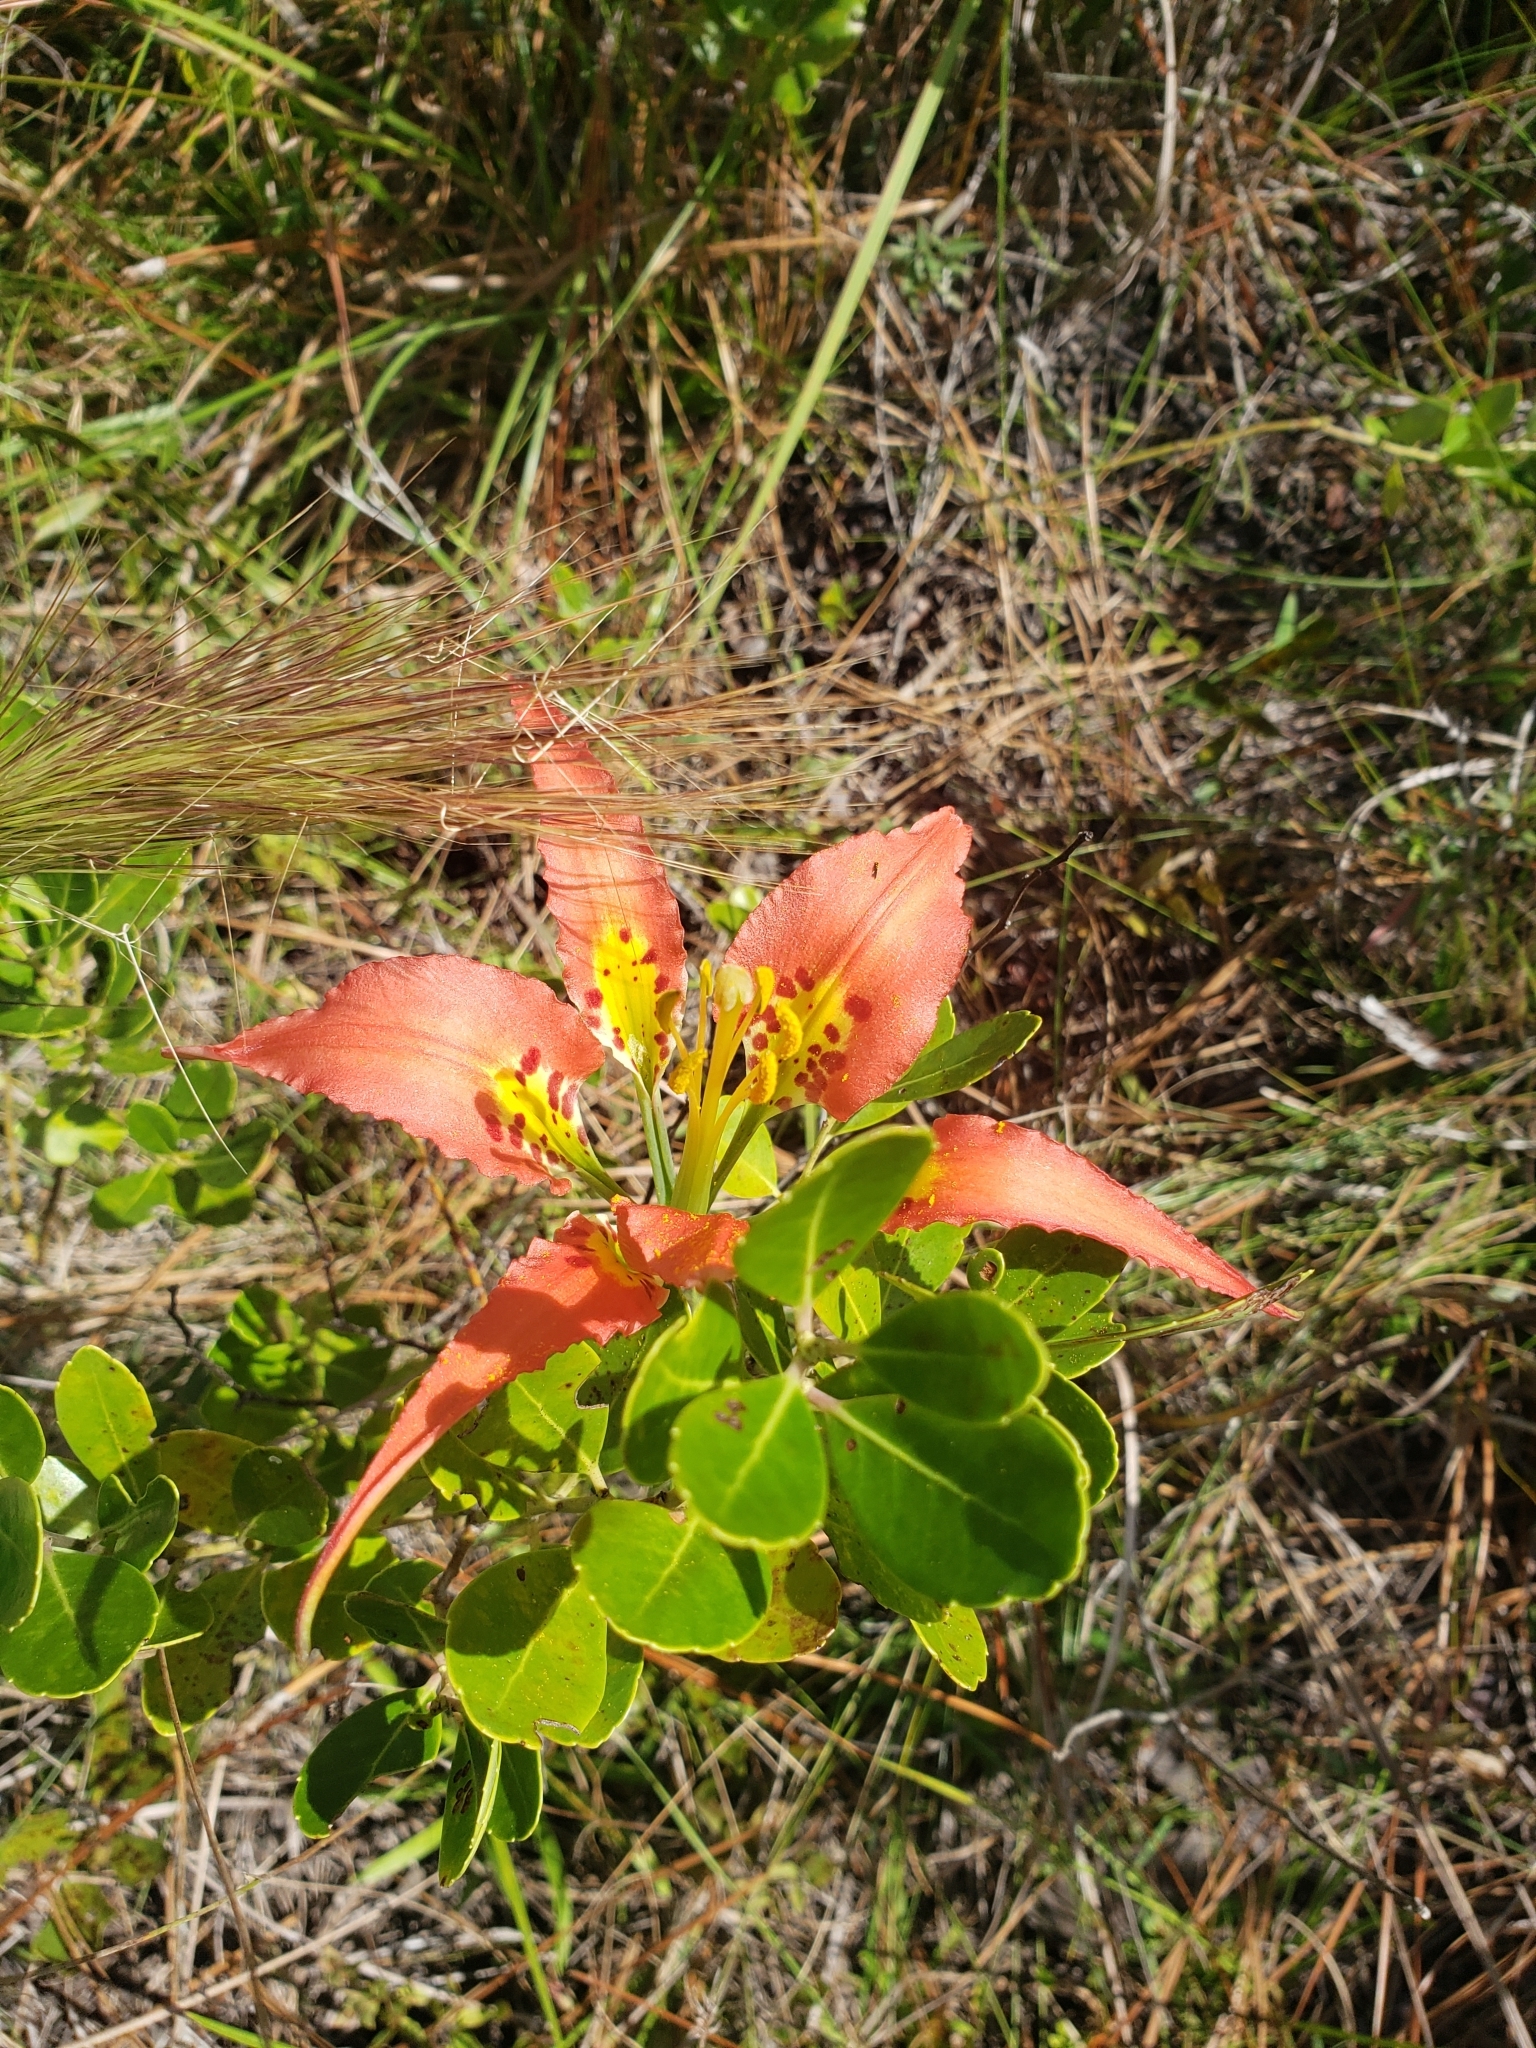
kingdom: Plantae
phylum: Tracheophyta
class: Liliopsida
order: Liliales
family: Liliaceae
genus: Lilium
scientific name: Lilium catesbaei
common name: Catesby's lily
